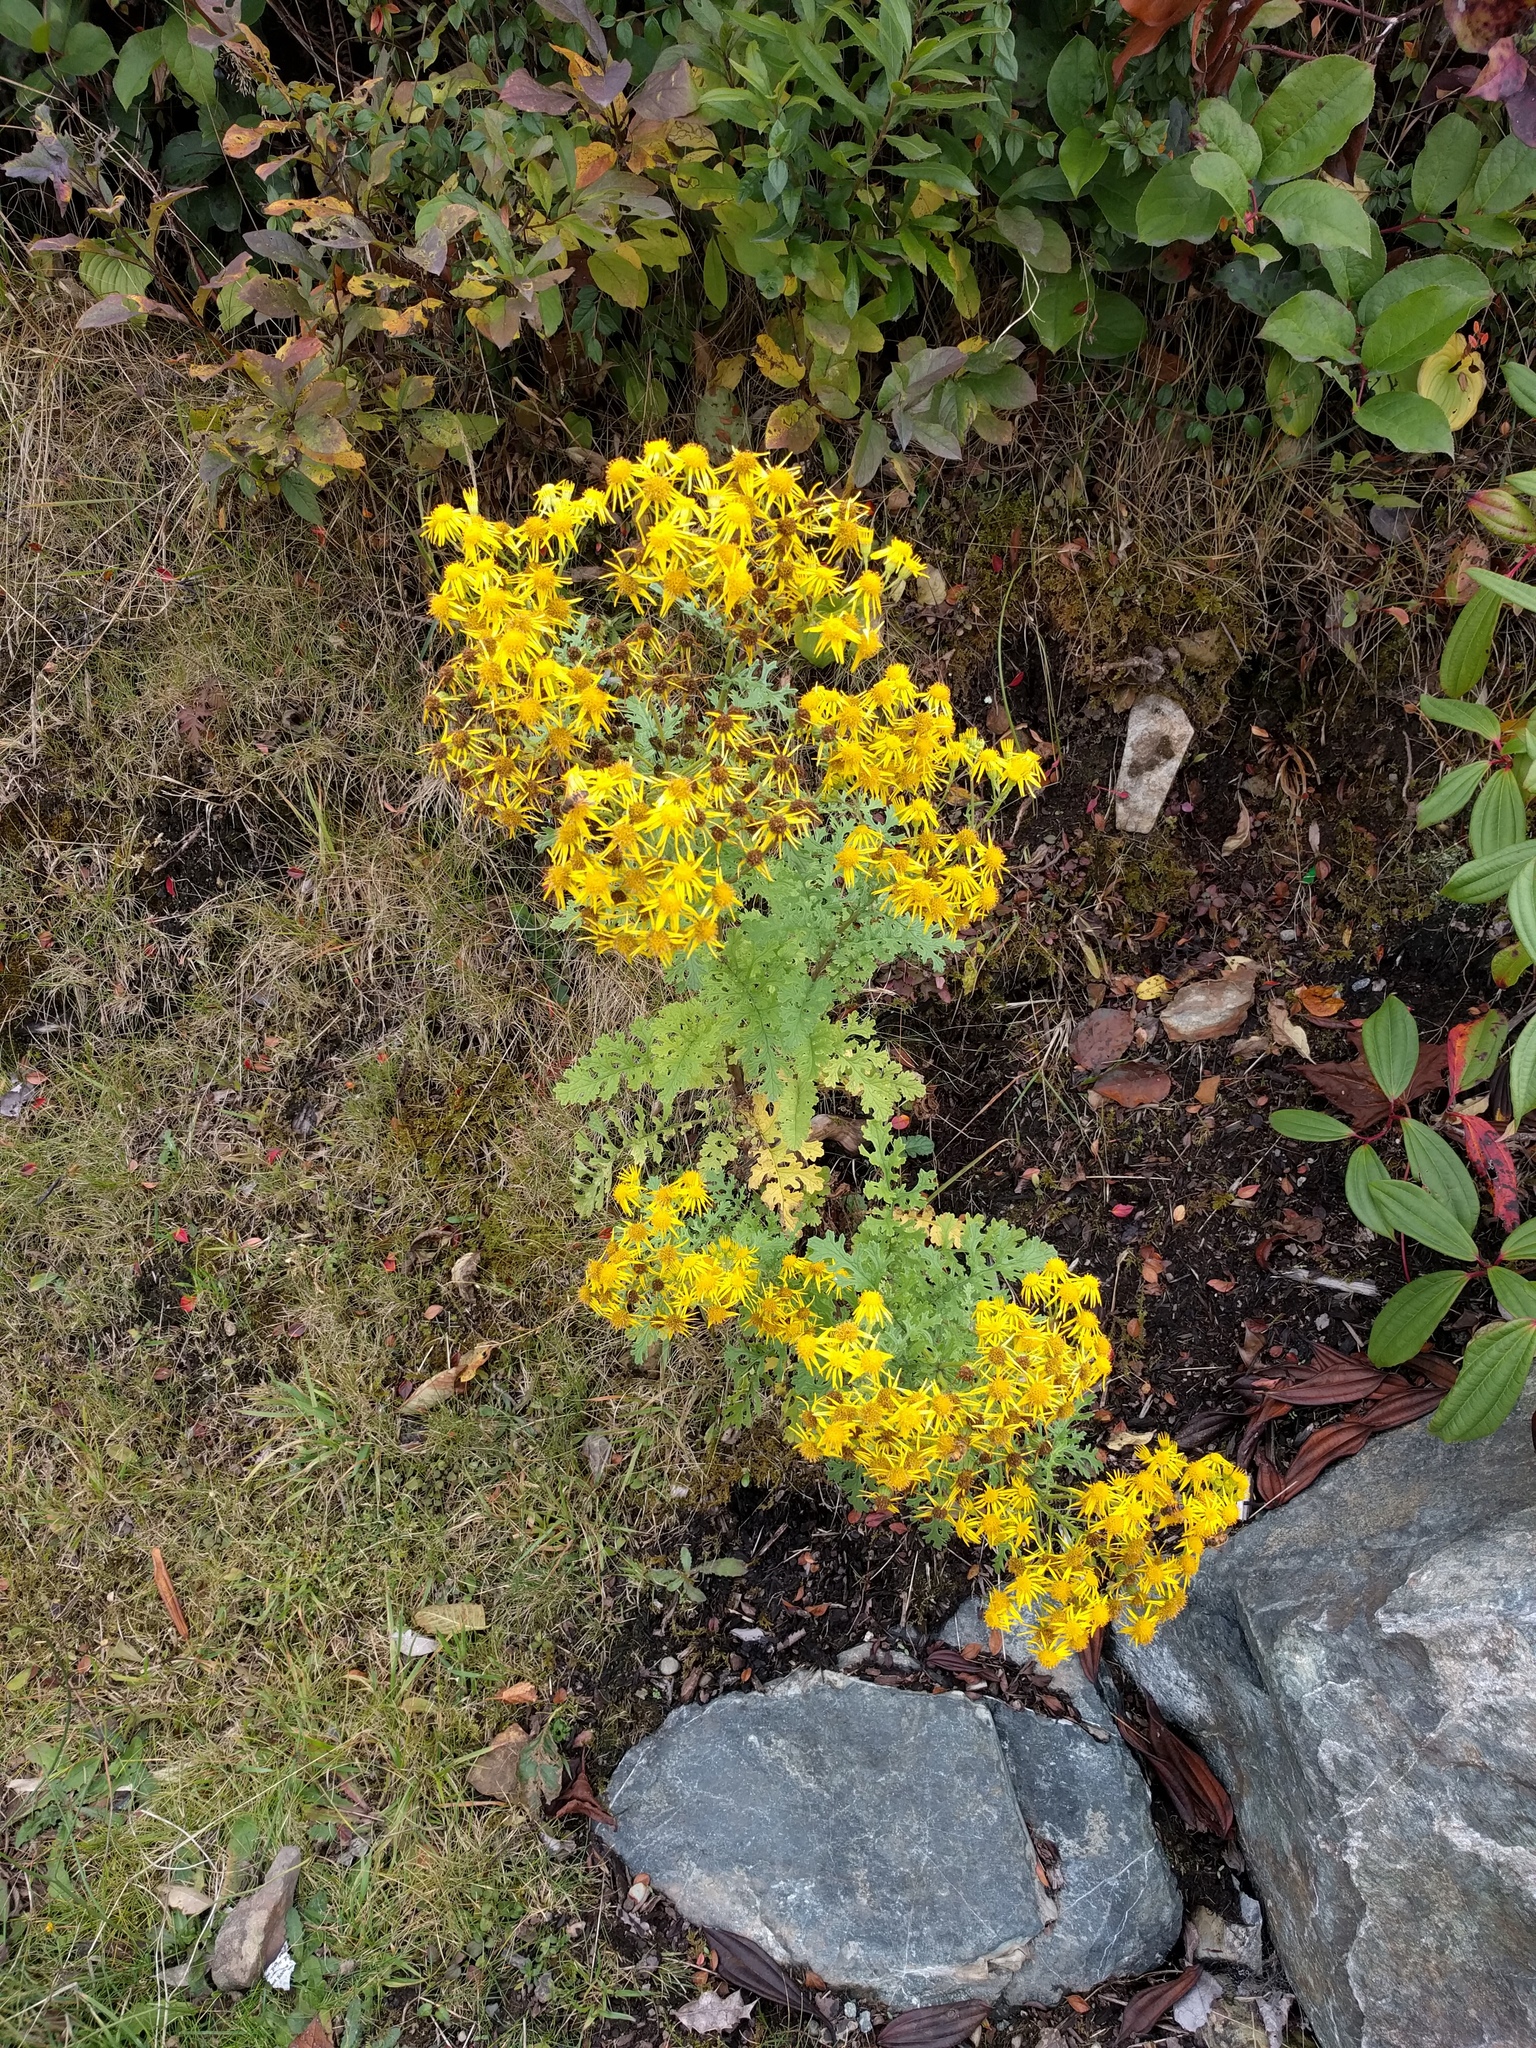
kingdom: Plantae
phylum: Tracheophyta
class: Magnoliopsida
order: Asterales
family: Asteraceae
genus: Jacobaea
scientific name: Jacobaea vulgaris
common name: Stinking willie
